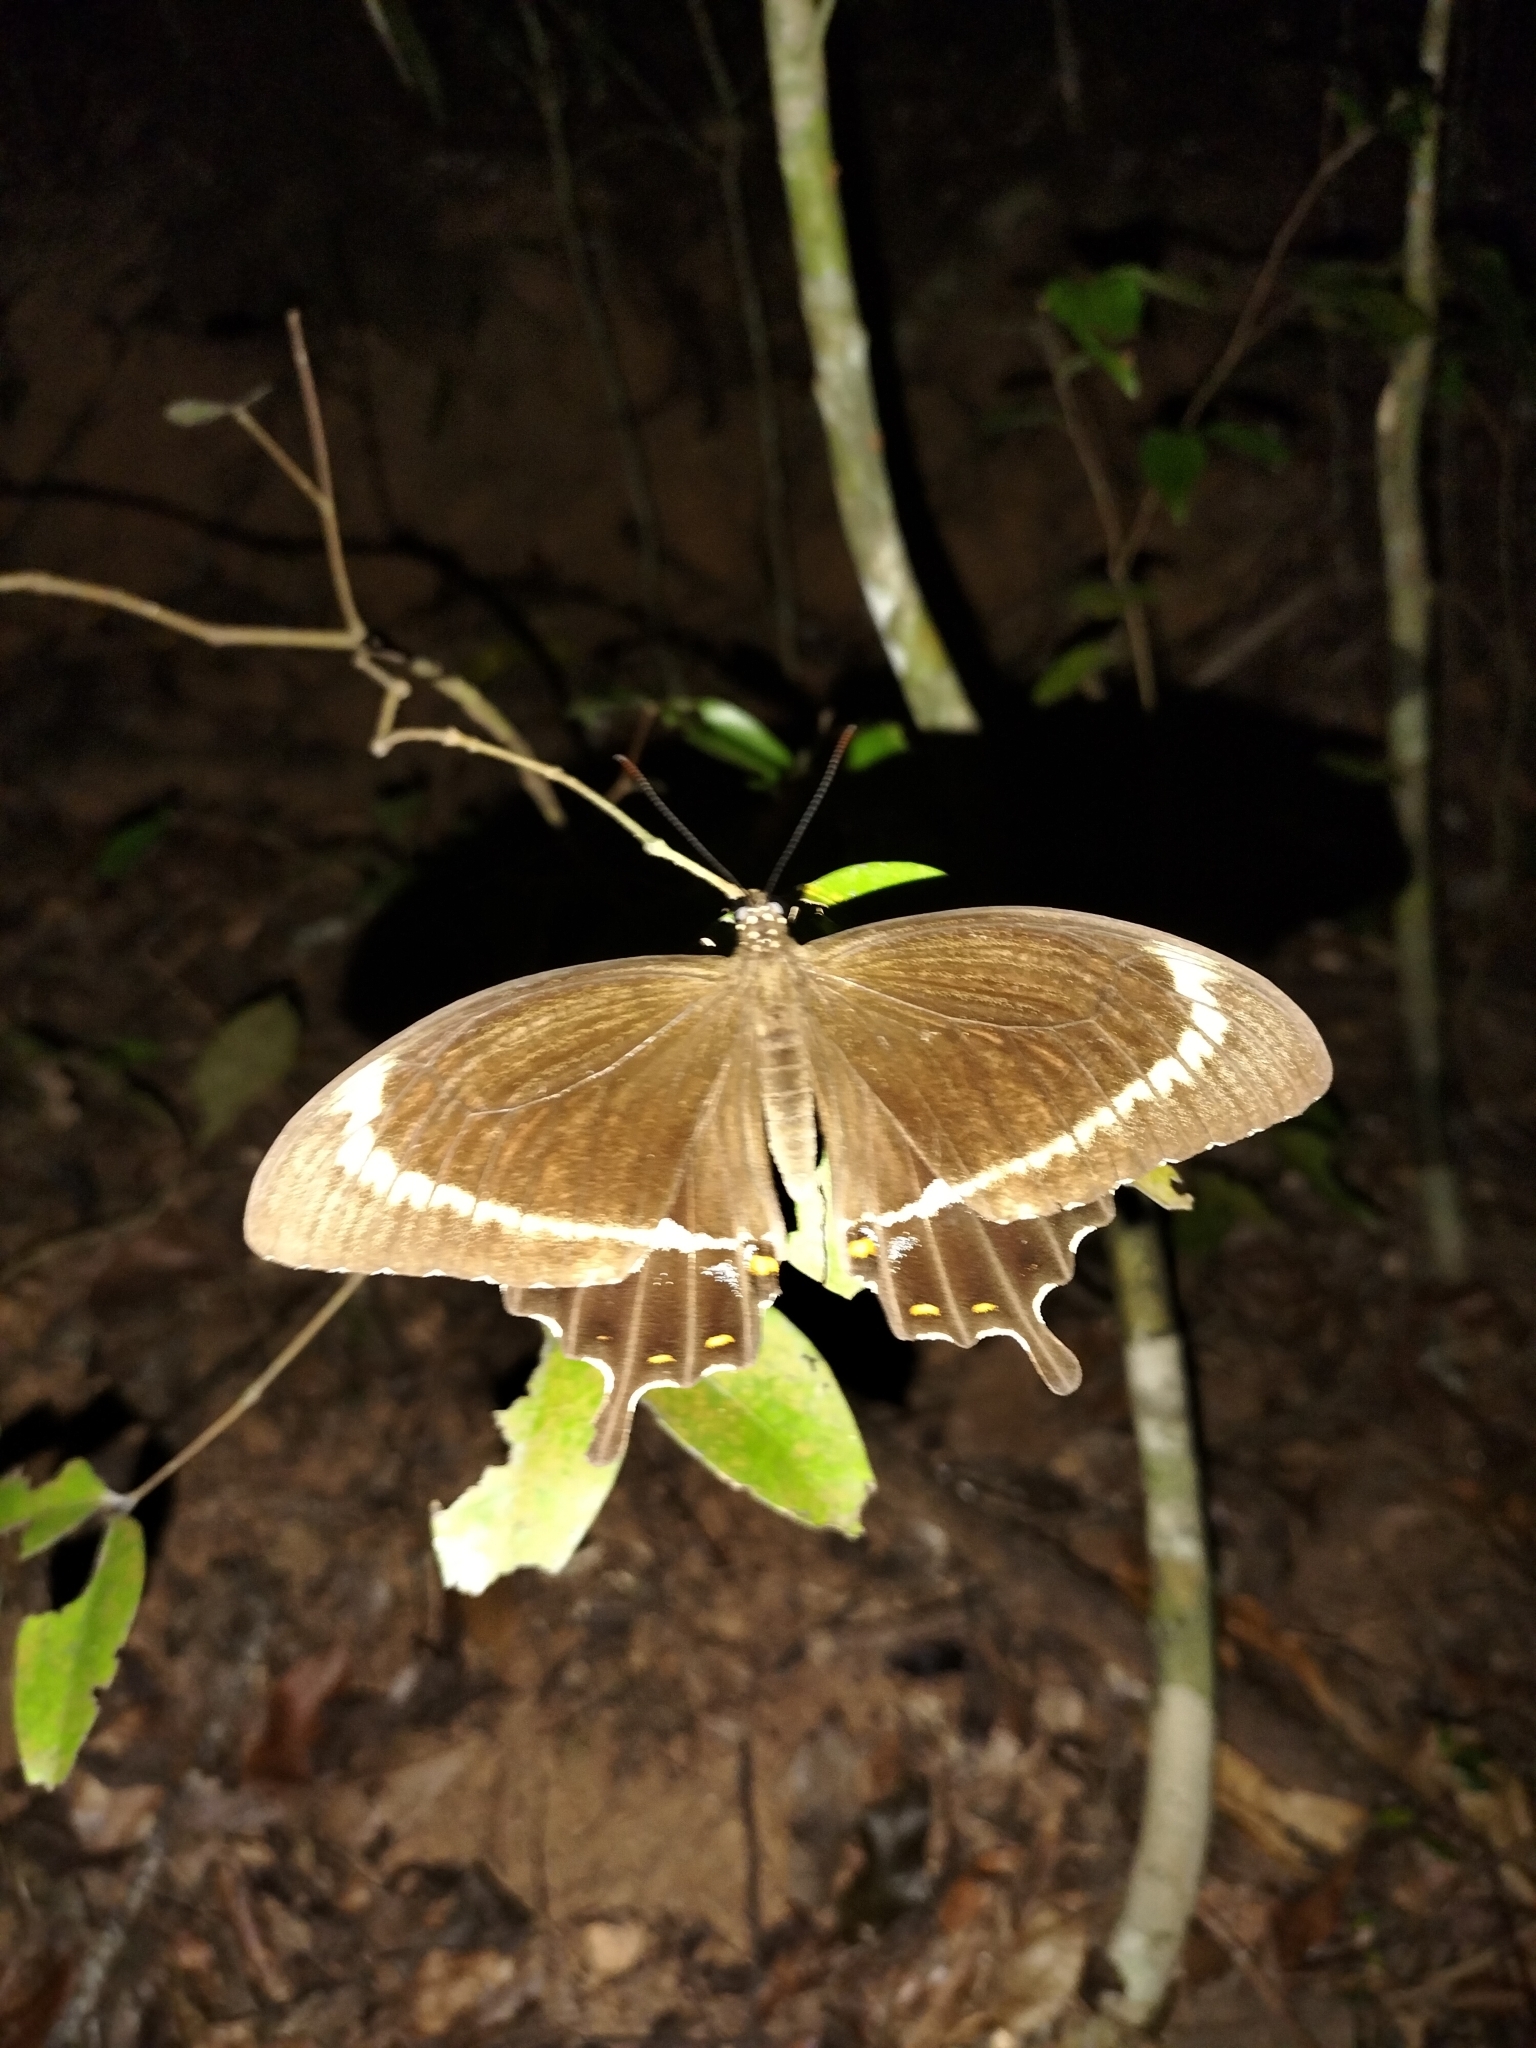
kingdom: Animalia
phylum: Arthropoda
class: Insecta
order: Lepidoptera
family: Lycaenidae
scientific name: Lycaenidae
